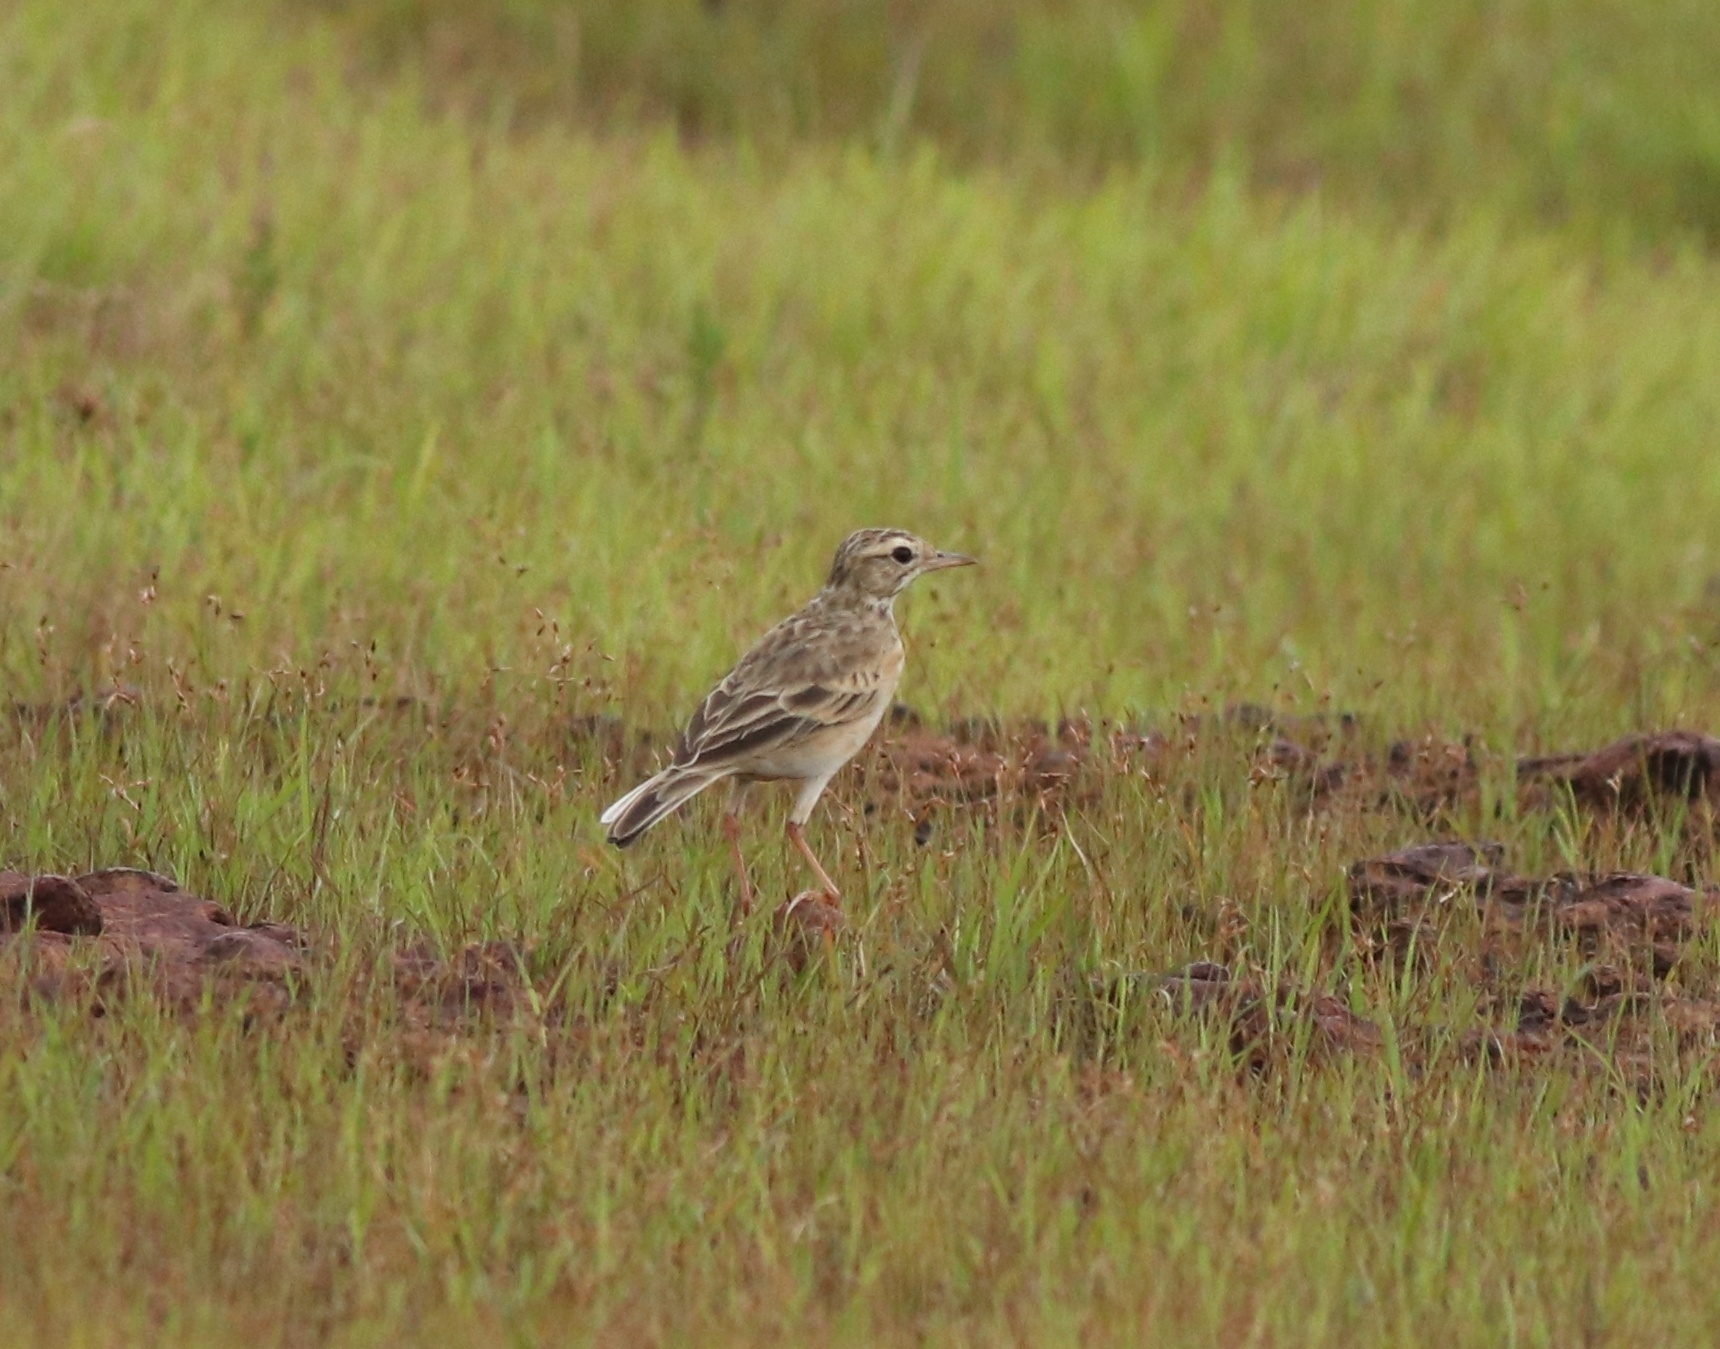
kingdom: Animalia
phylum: Chordata
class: Aves
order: Passeriformes
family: Motacillidae
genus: Anthus
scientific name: Anthus rufulus
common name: Paddyfield pipit
